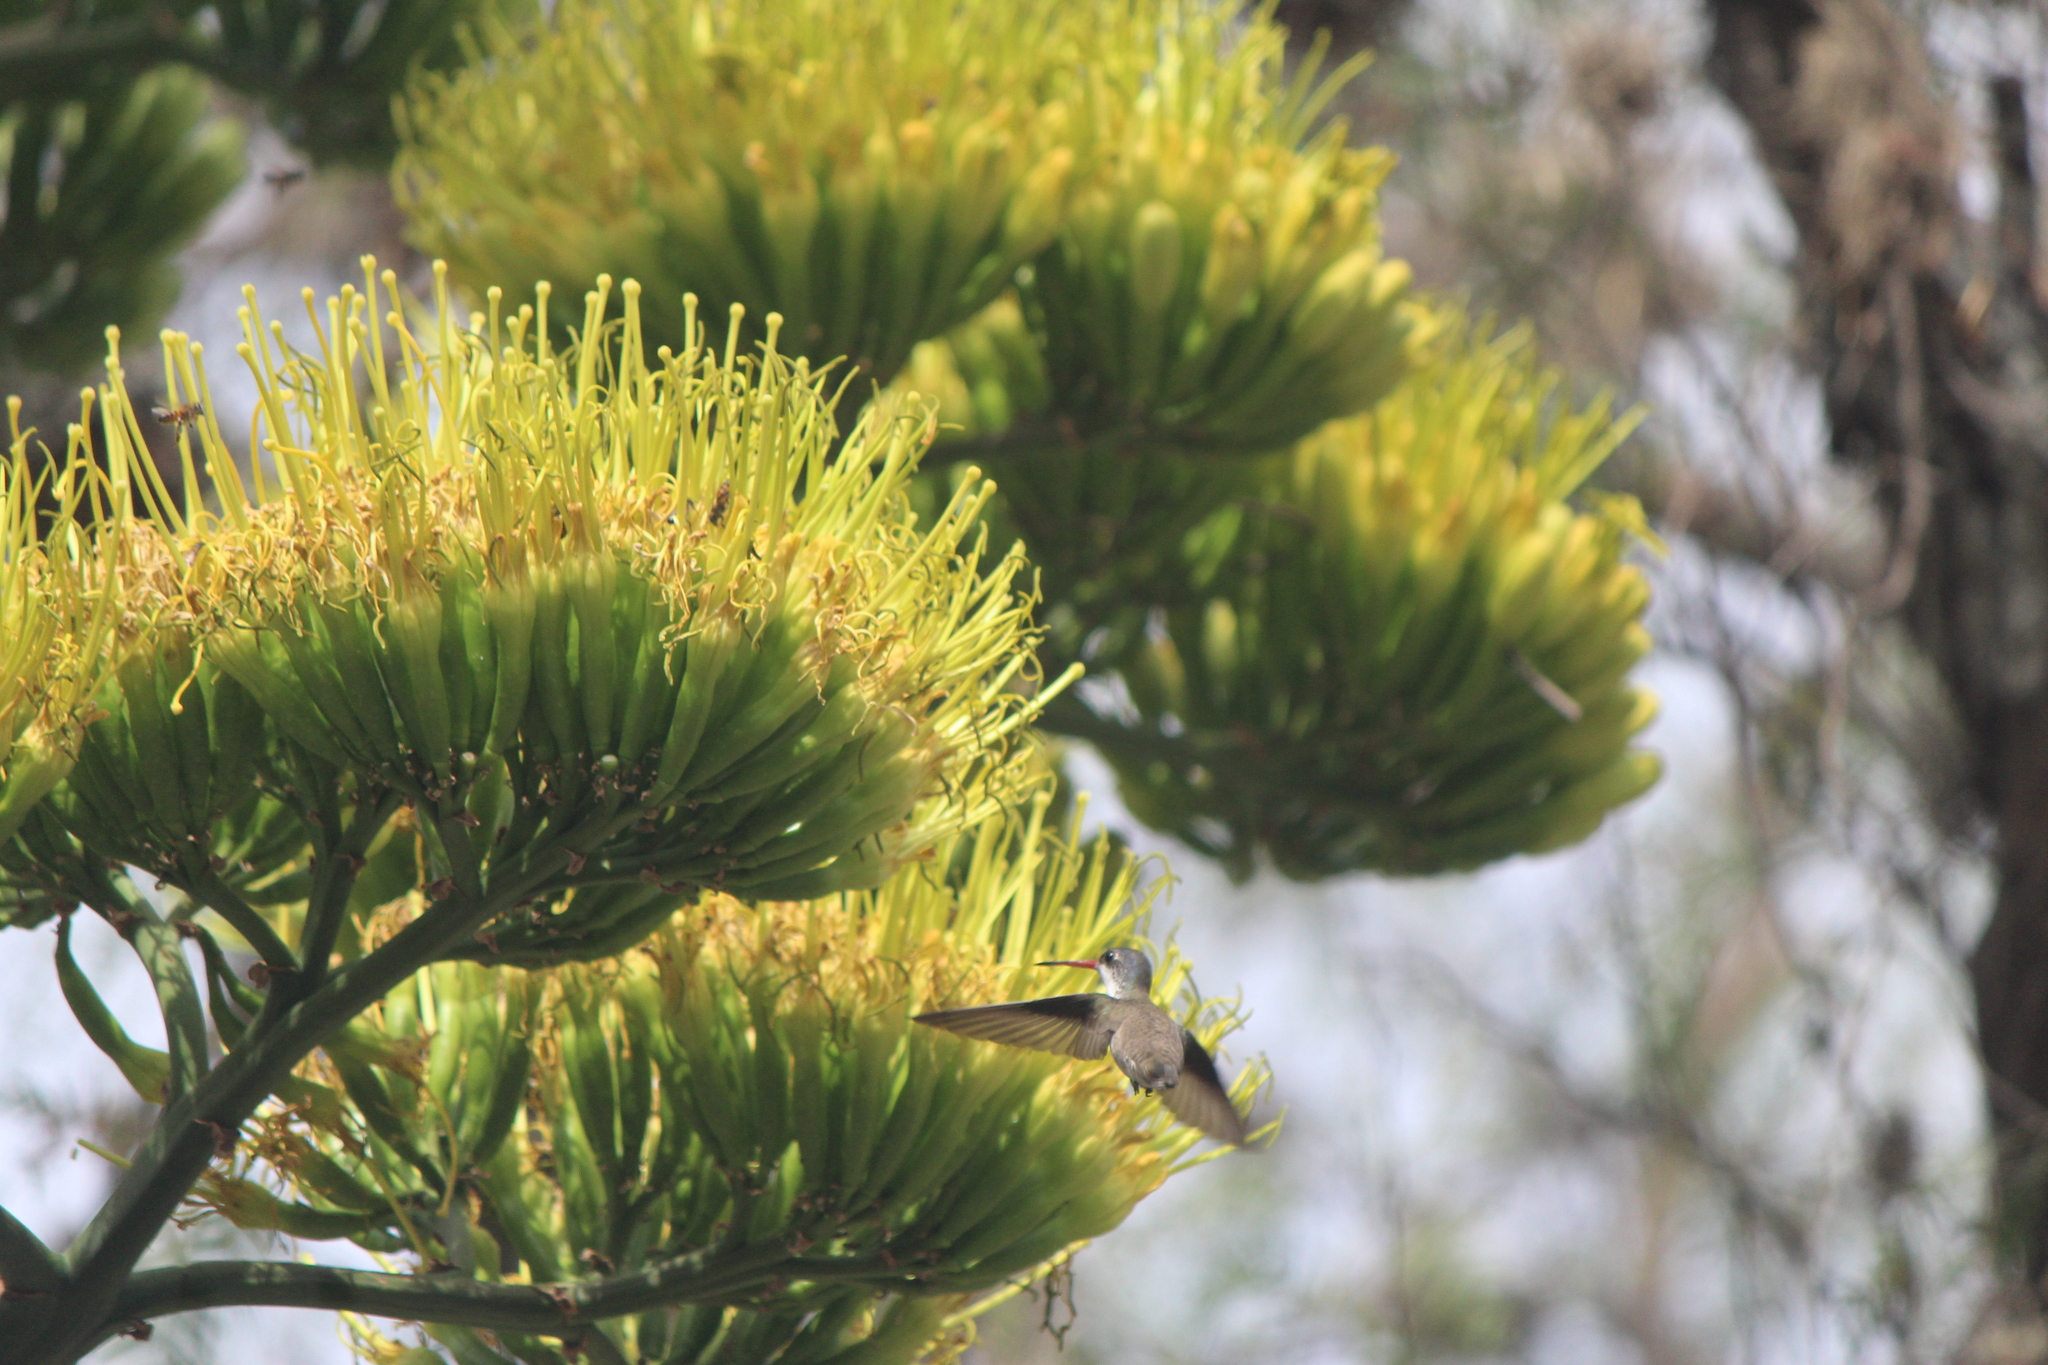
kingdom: Animalia
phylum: Chordata
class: Aves
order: Apodiformes
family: Trochilidae
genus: Leucolia
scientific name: Leucolia violiceps
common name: Violet-crowned hummingbird
